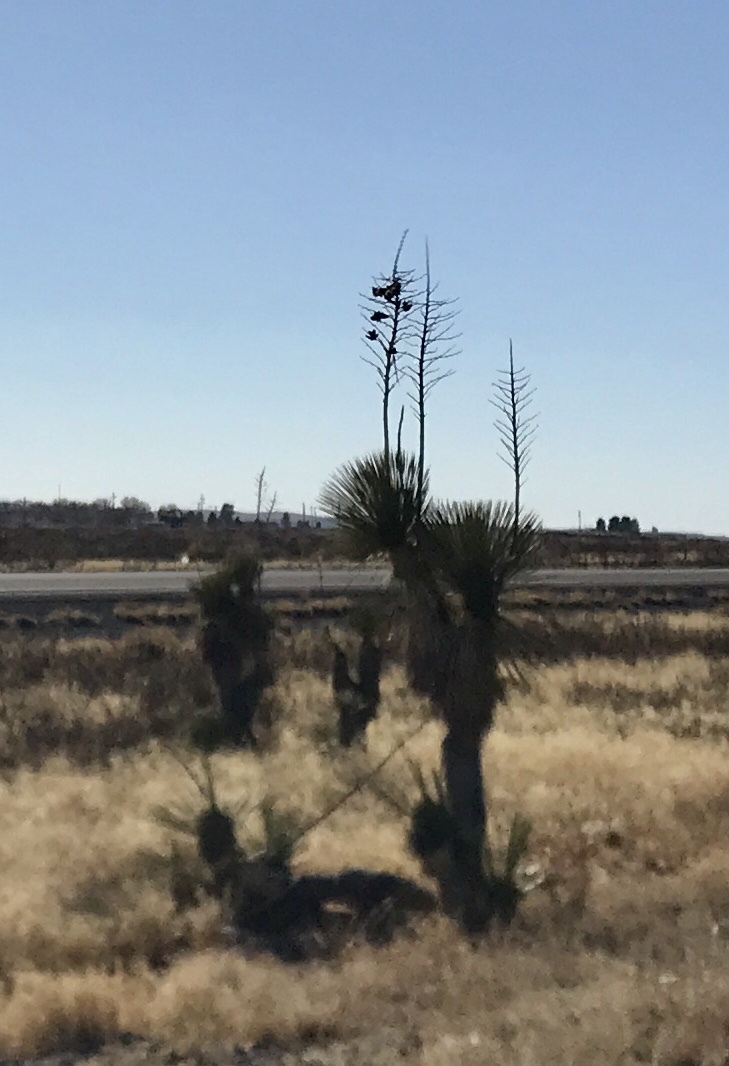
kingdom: Plantae
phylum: Tracheophyta
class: Liliopsida
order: Asparagales
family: Asparagaceae
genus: Yucca
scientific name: Yucca elata
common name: Palmella
